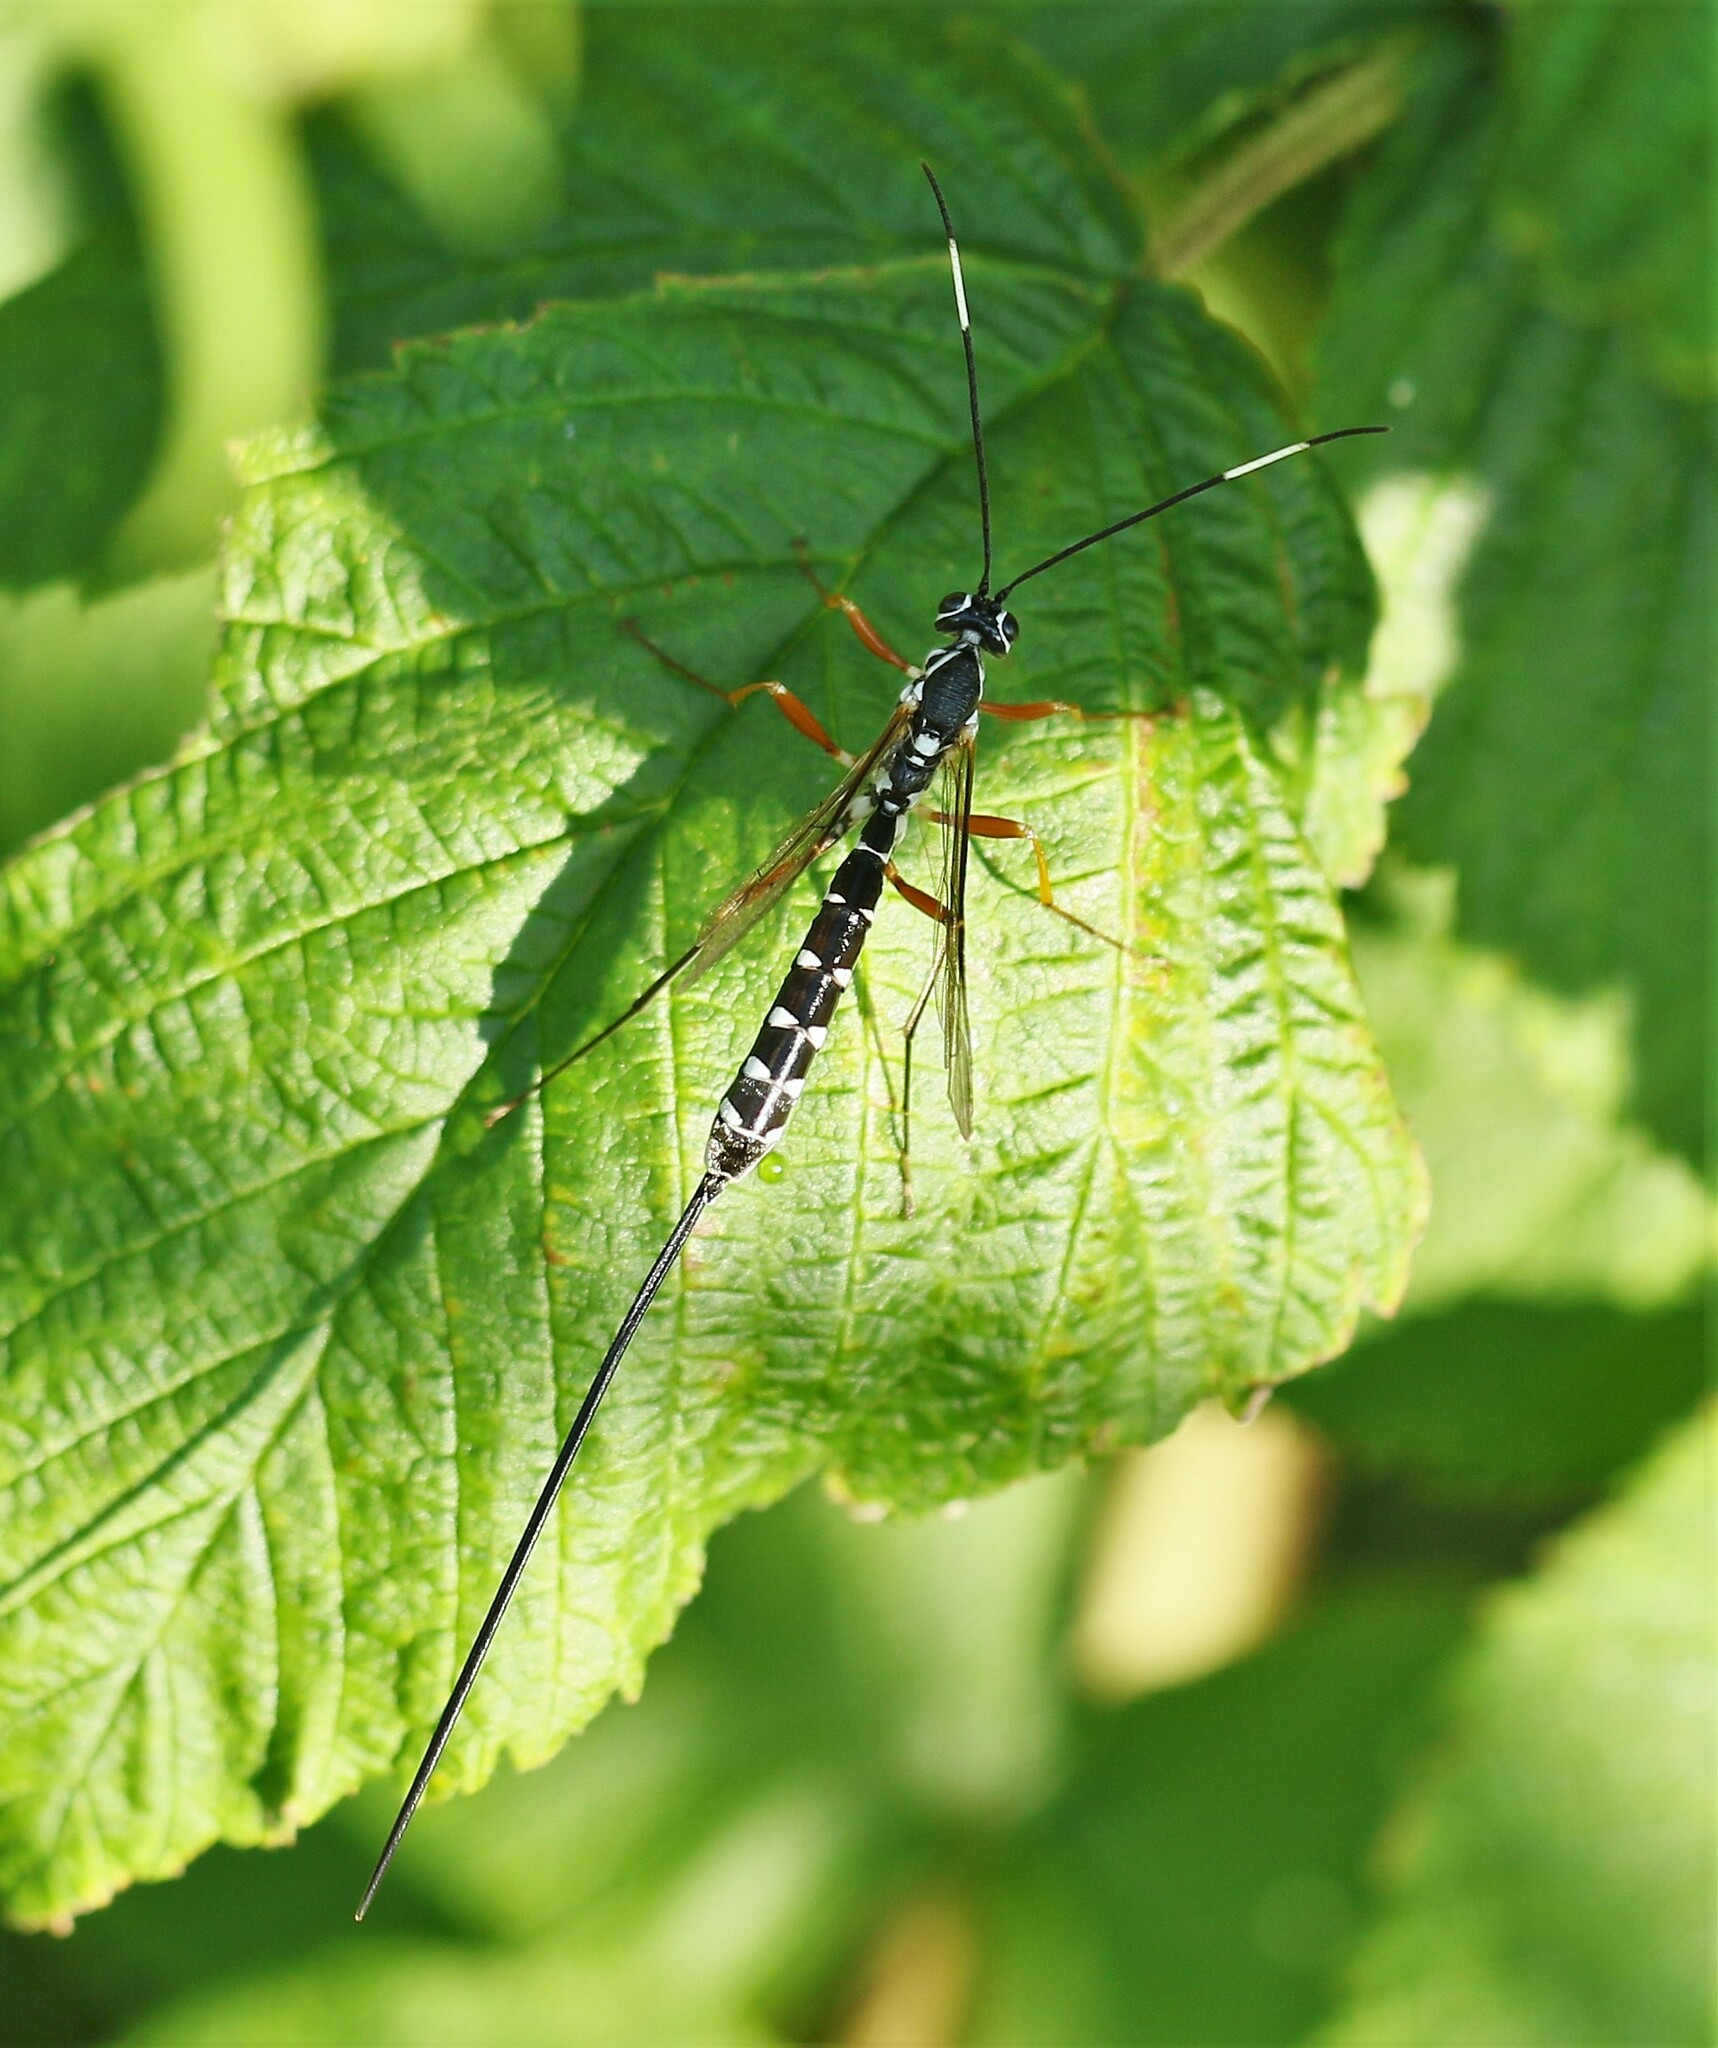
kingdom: Animalia
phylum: Arthropoda
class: Insecta
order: Hymenoptera
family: Ichneumonidae
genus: Rhyssa
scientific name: Rhyssa lineolata
